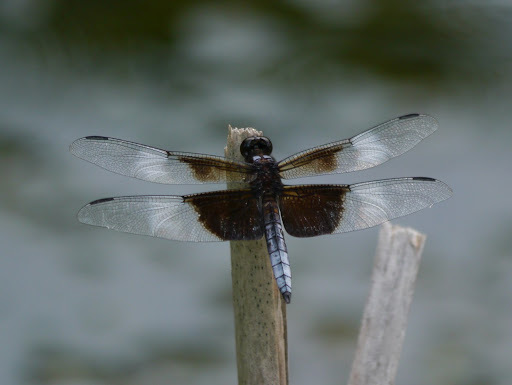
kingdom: Animalia
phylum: Arthropoda
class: Insecta
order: Odonata
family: Libellulidae
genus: Libellula
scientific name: Libellula luctuosa
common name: Widow skimmer
